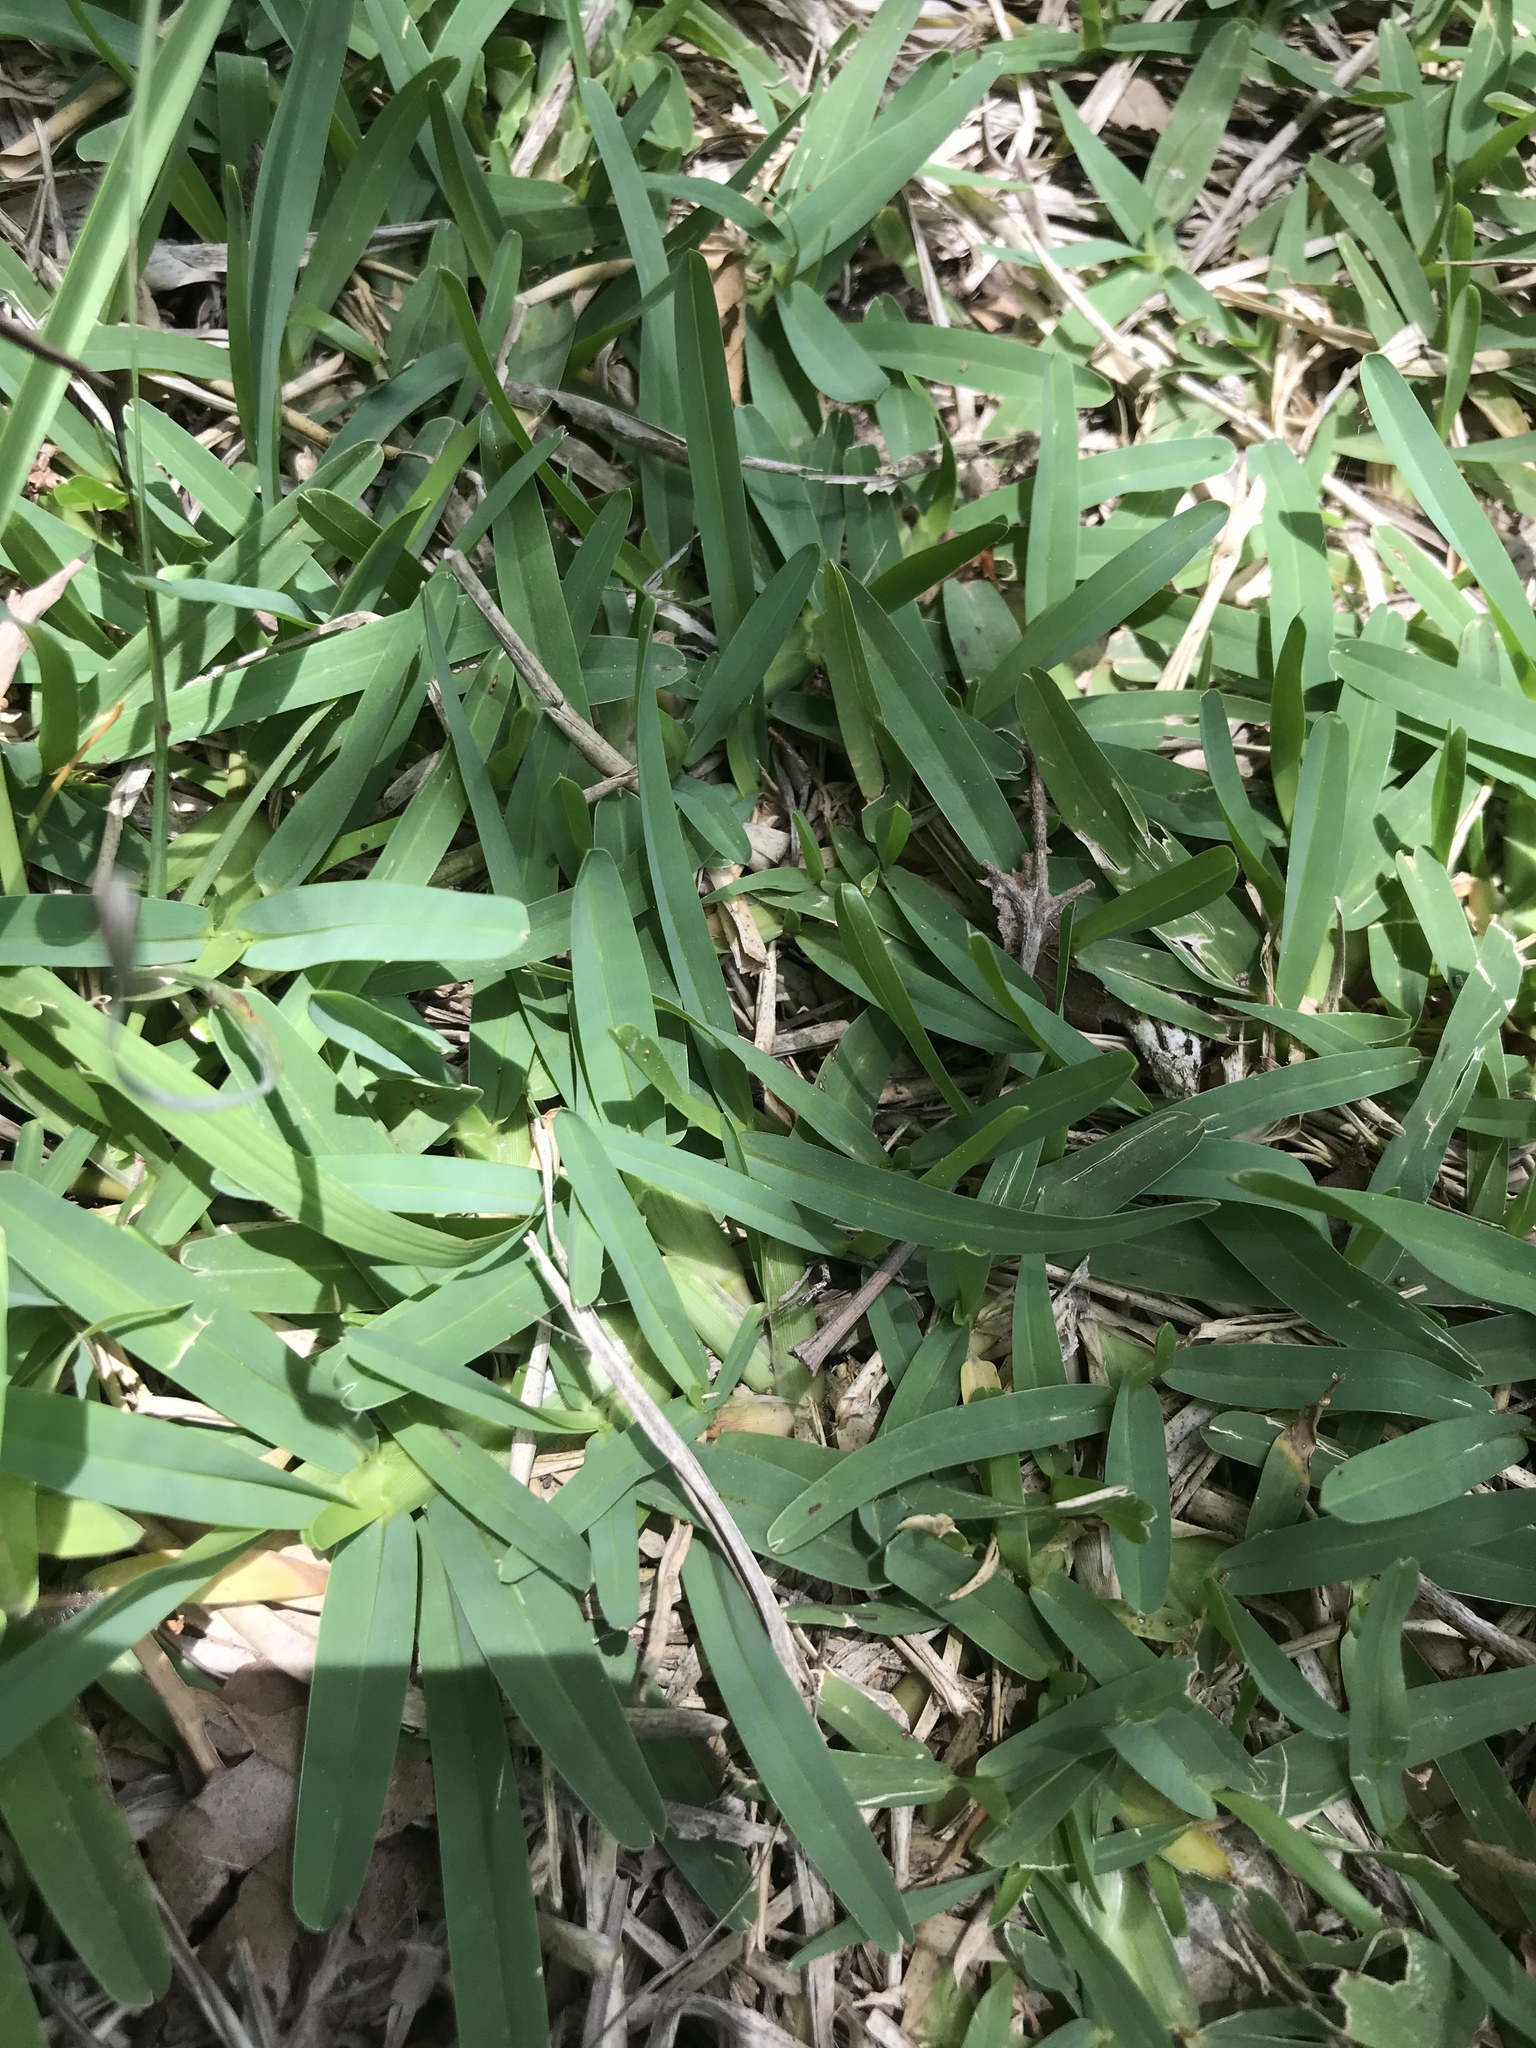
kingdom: Plantae
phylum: Tracheophyta
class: Liliopsida
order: Poales
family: Poaceae
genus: Stenotaphrum
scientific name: Stenotaphrum secundatum
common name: St. augustine grass
